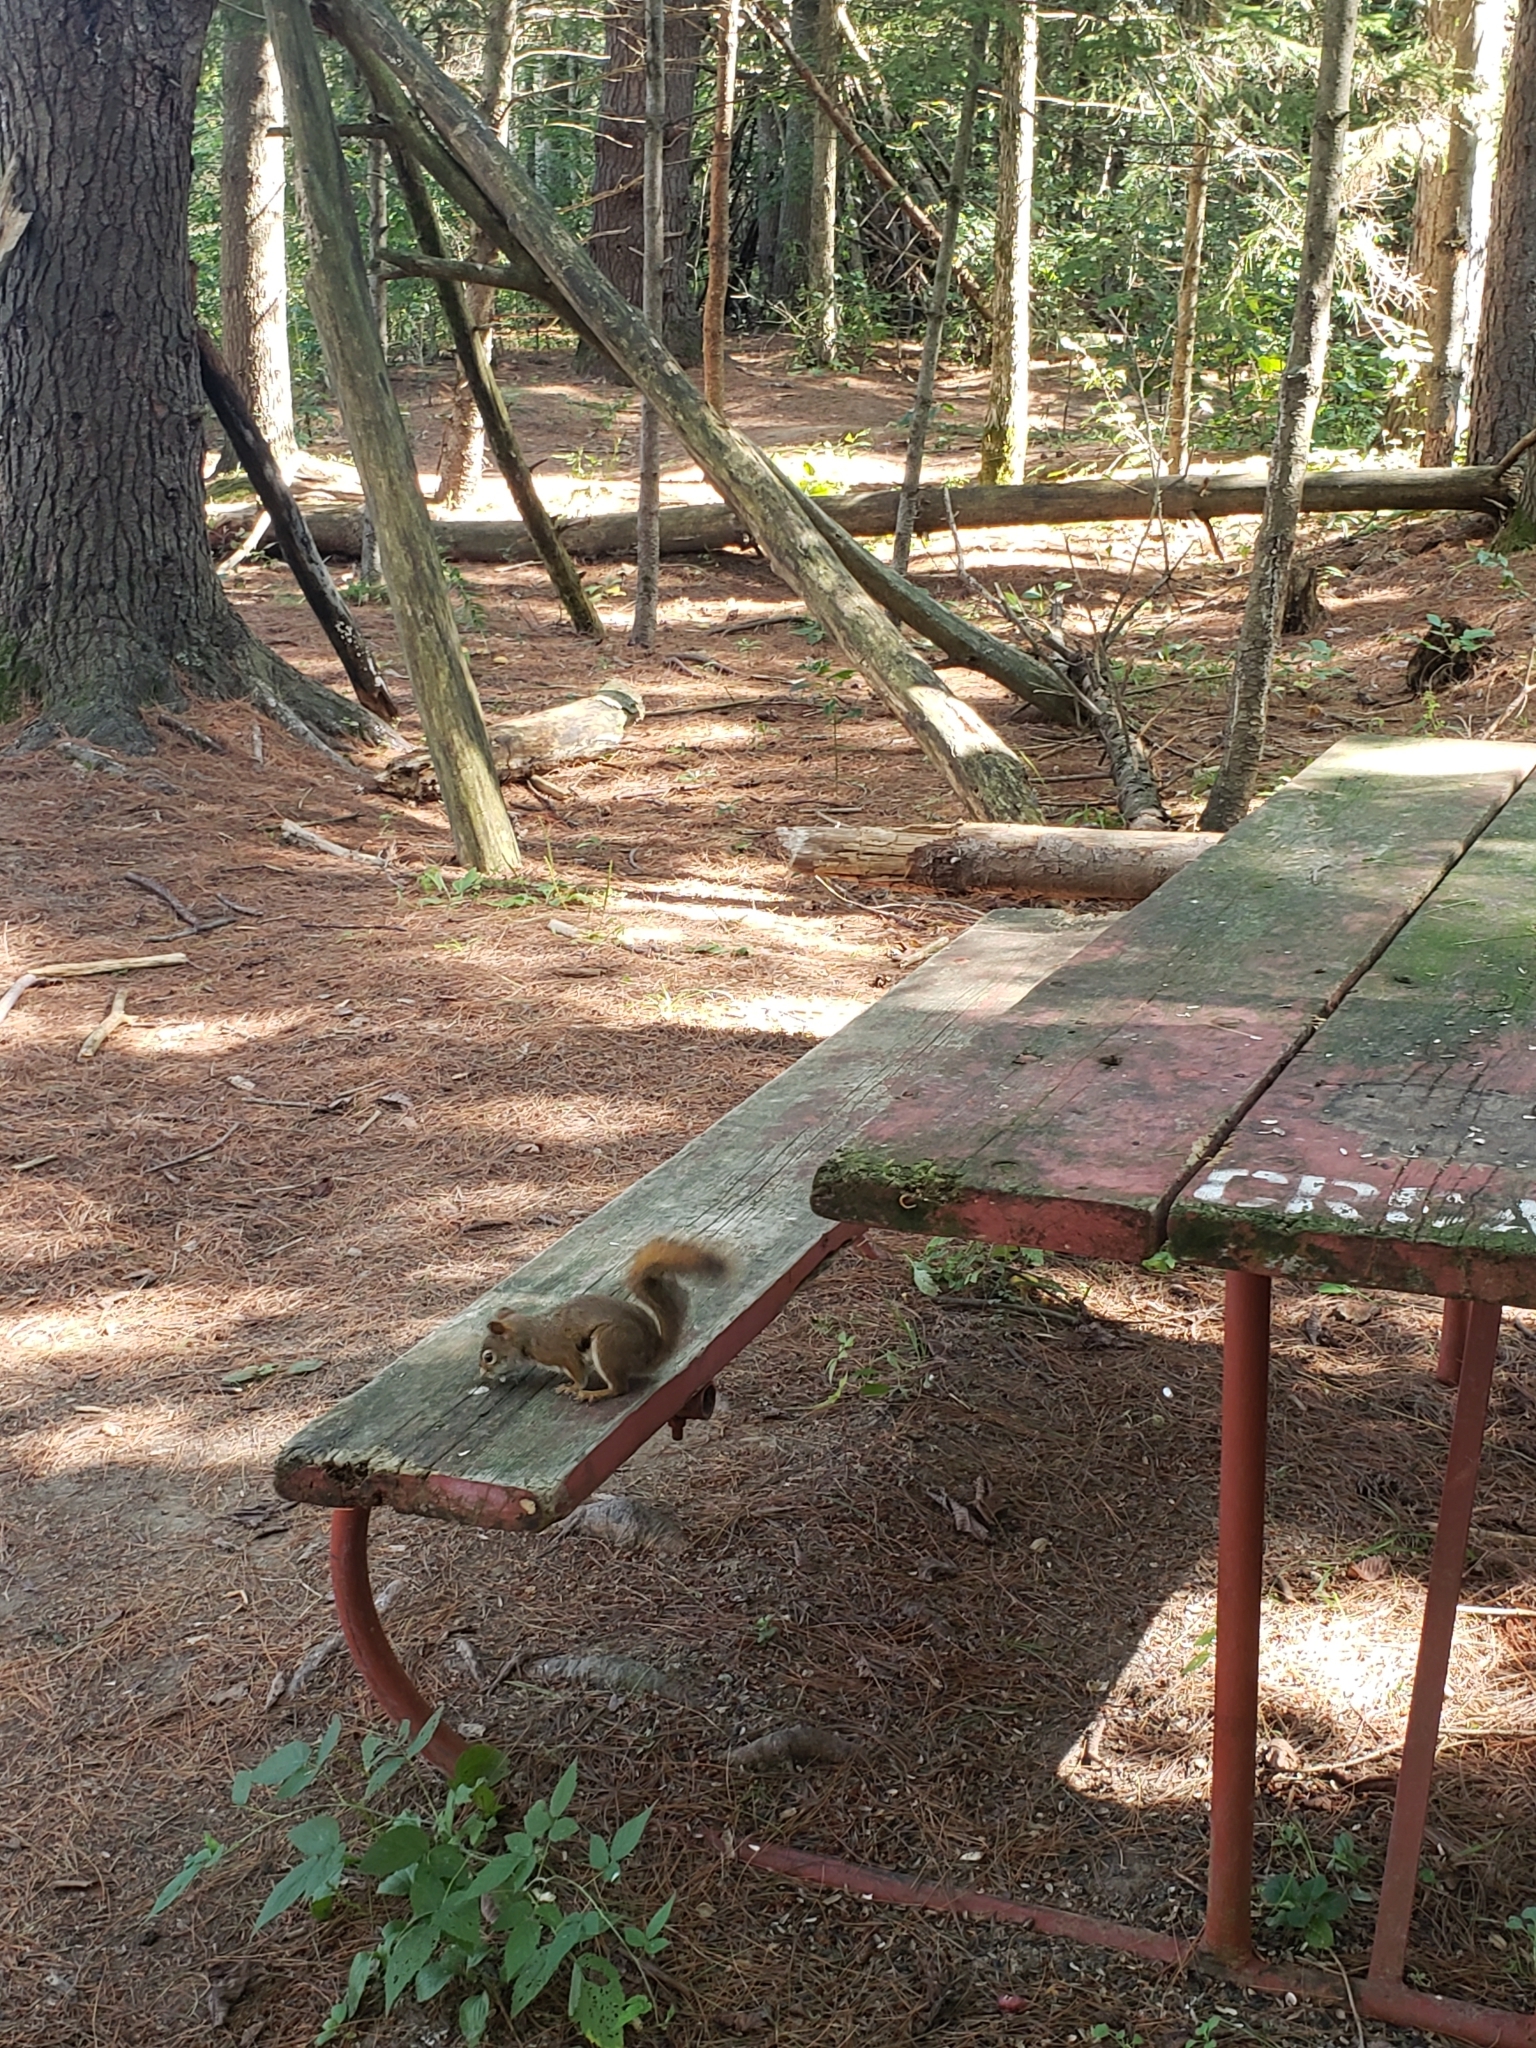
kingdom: Animalia
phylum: Chordata
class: Mammalia
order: Rodentia
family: Sciuridae
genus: Tamiasciurus
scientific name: Tamiasciurus hudsonicus
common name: Red squirrel
